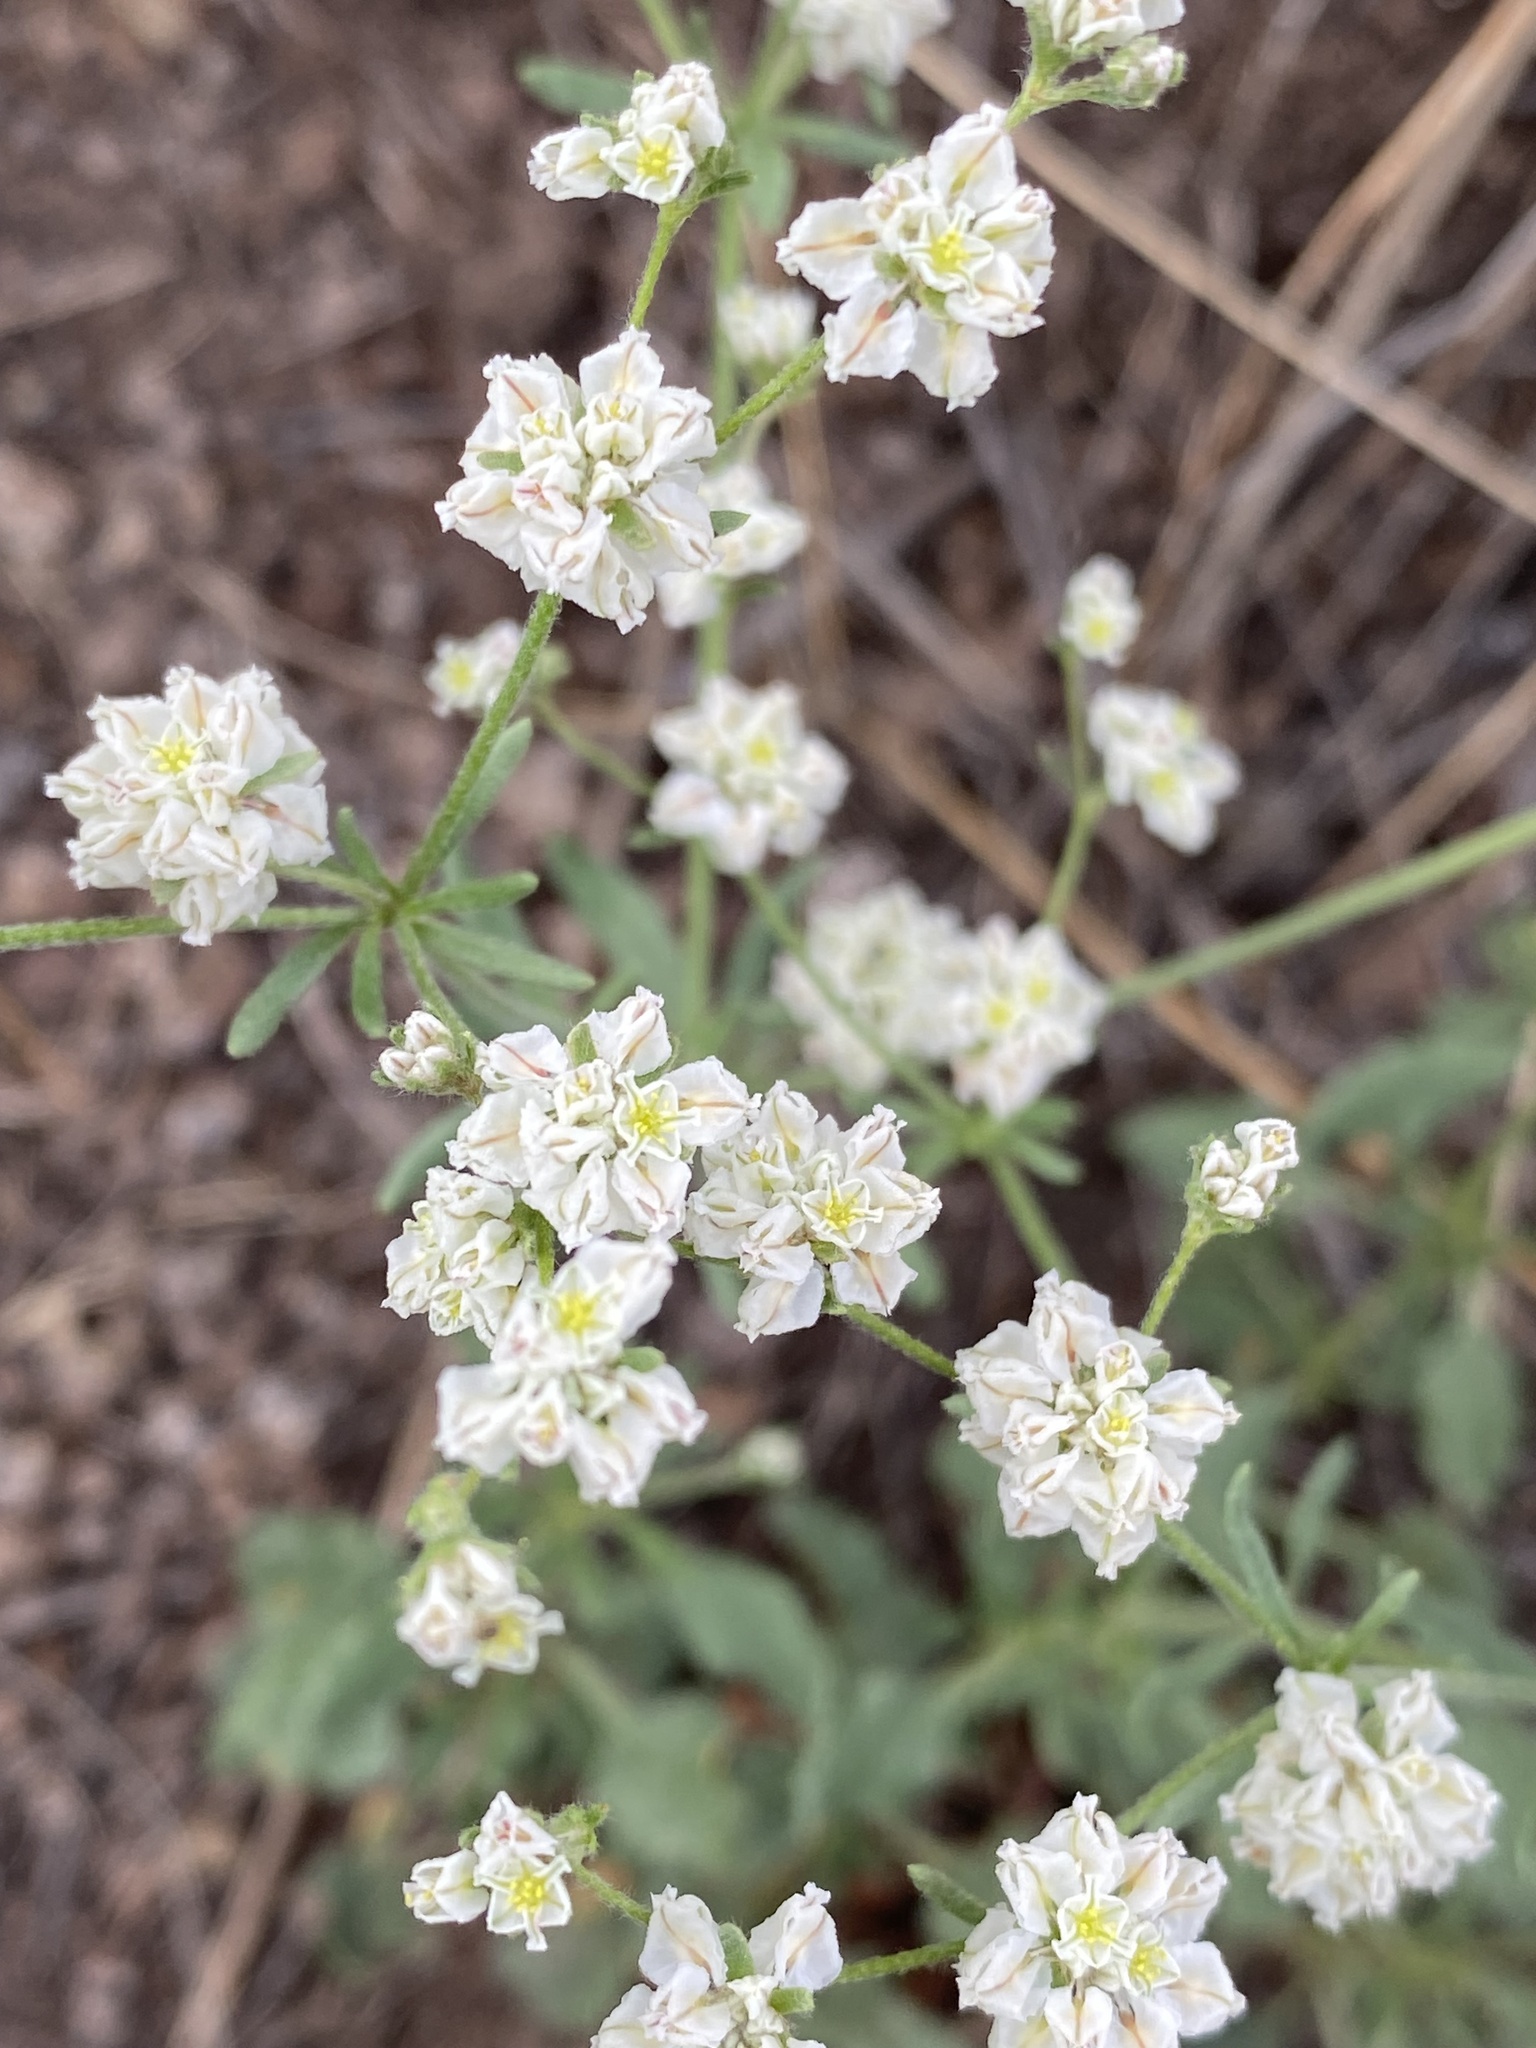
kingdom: Plantae
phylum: Tracheophyta
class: Magnoliopsida
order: Caryophyllales
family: Polygonaceae
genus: Eriogonum
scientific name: Eriogonum abertianum
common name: Abert's wild buckwheat
